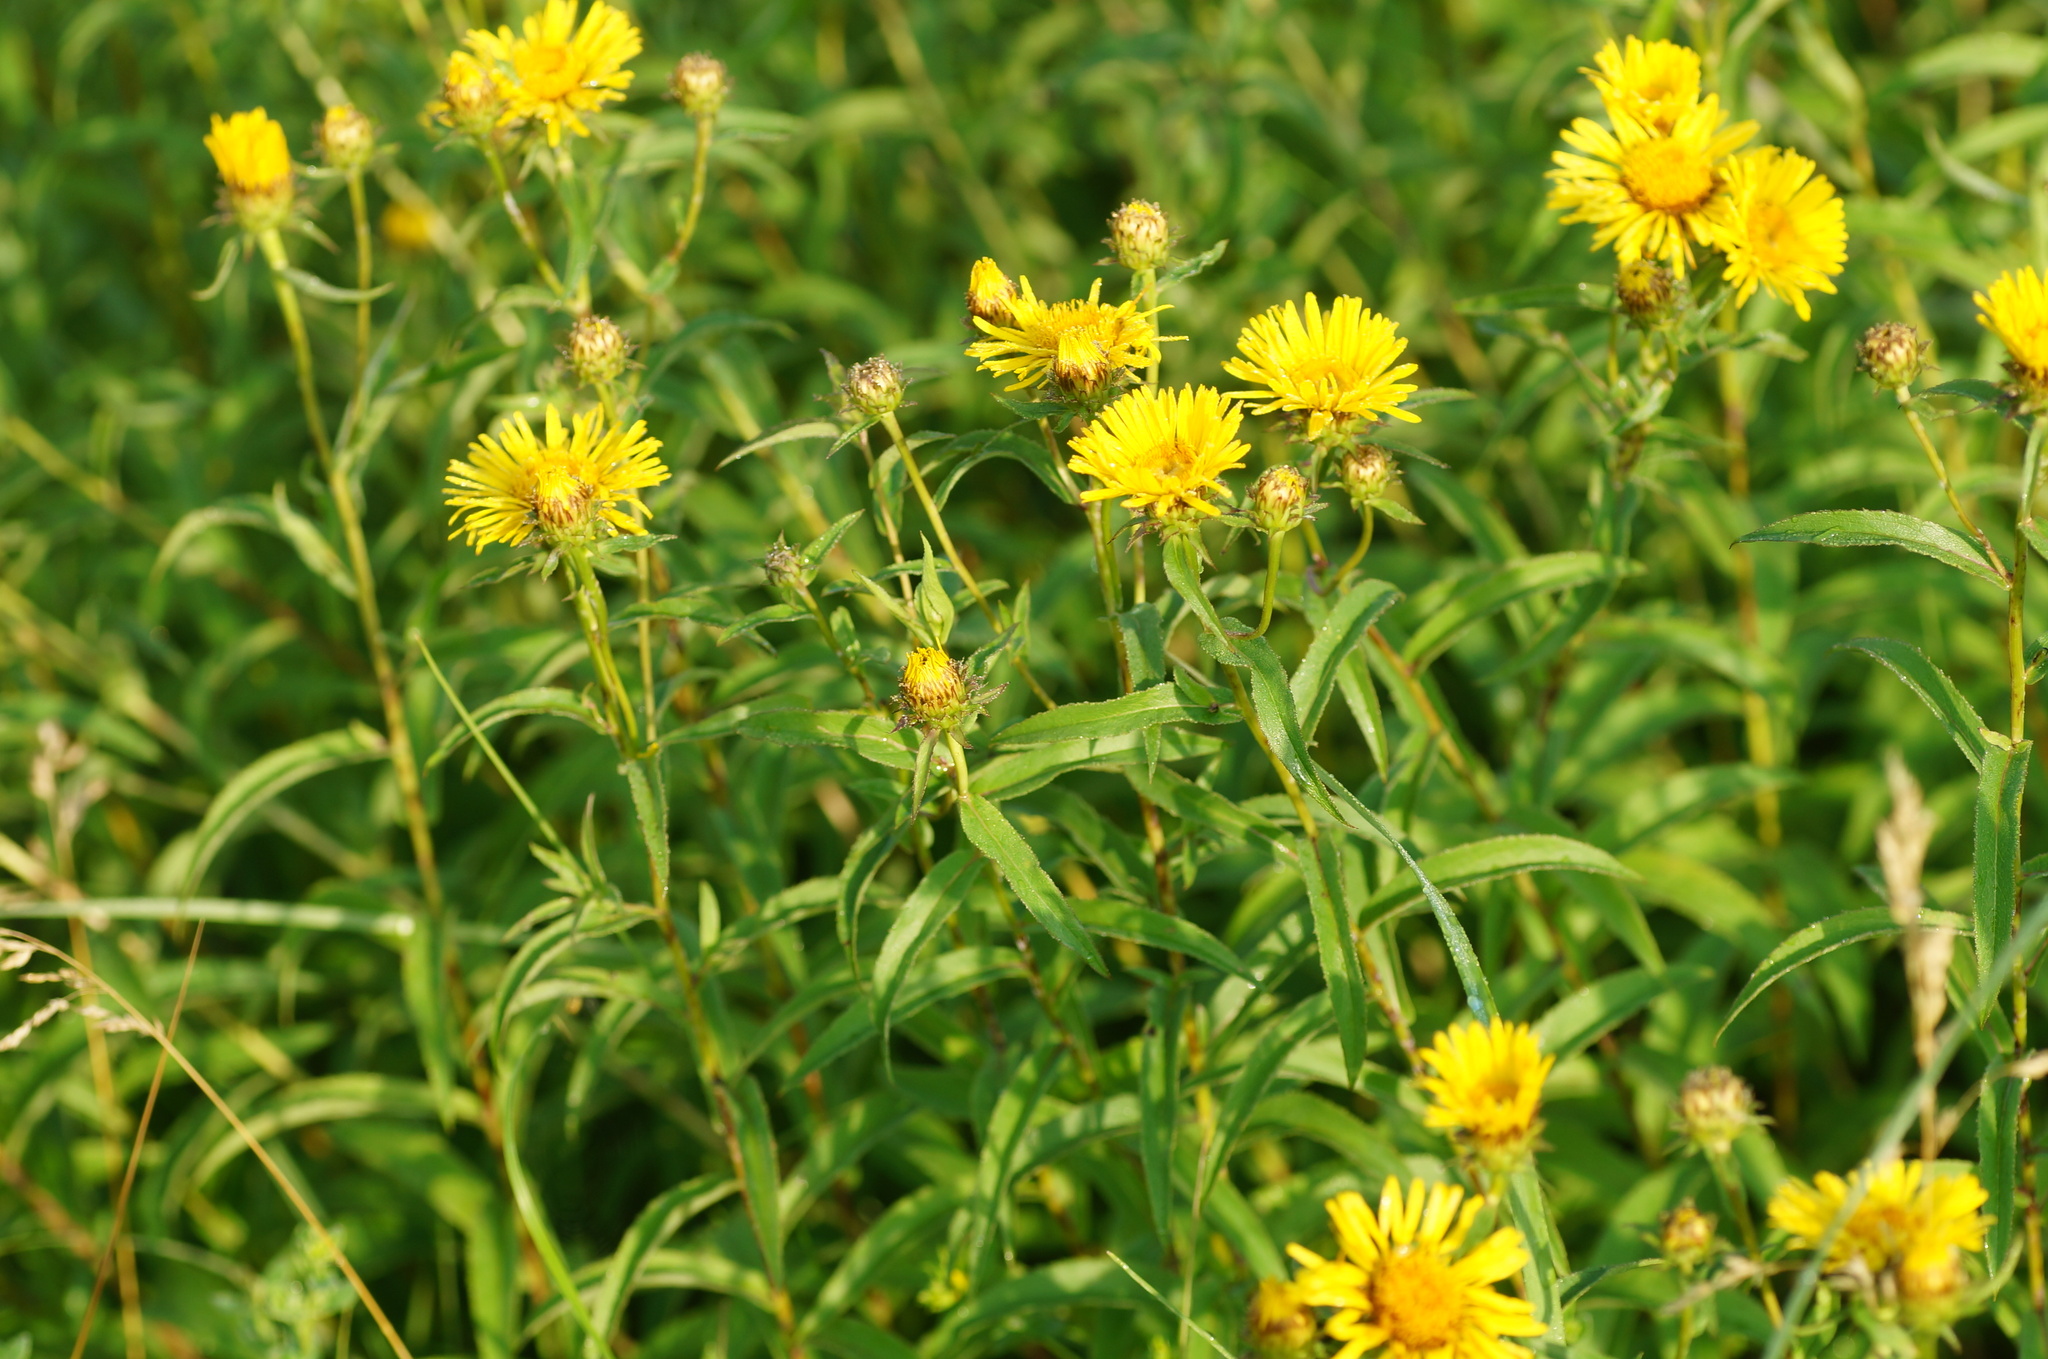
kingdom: Plantae
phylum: Tracheophyta
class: Magnoliopsida
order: Asterales
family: Asteraceae
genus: Pentanema
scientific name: Pentanema salicinum
